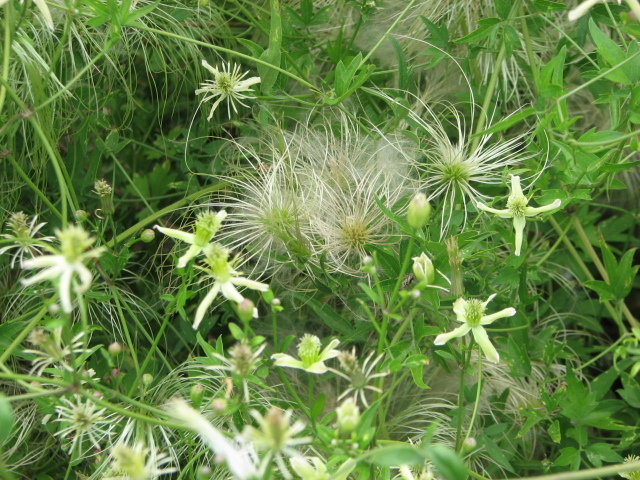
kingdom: Plantae
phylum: Tracheophyta
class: Magnoliopsida
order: Ranunculales
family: Ranunculaceae
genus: Clematis
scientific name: Clematis drummondii
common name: Texas virgin's bower
